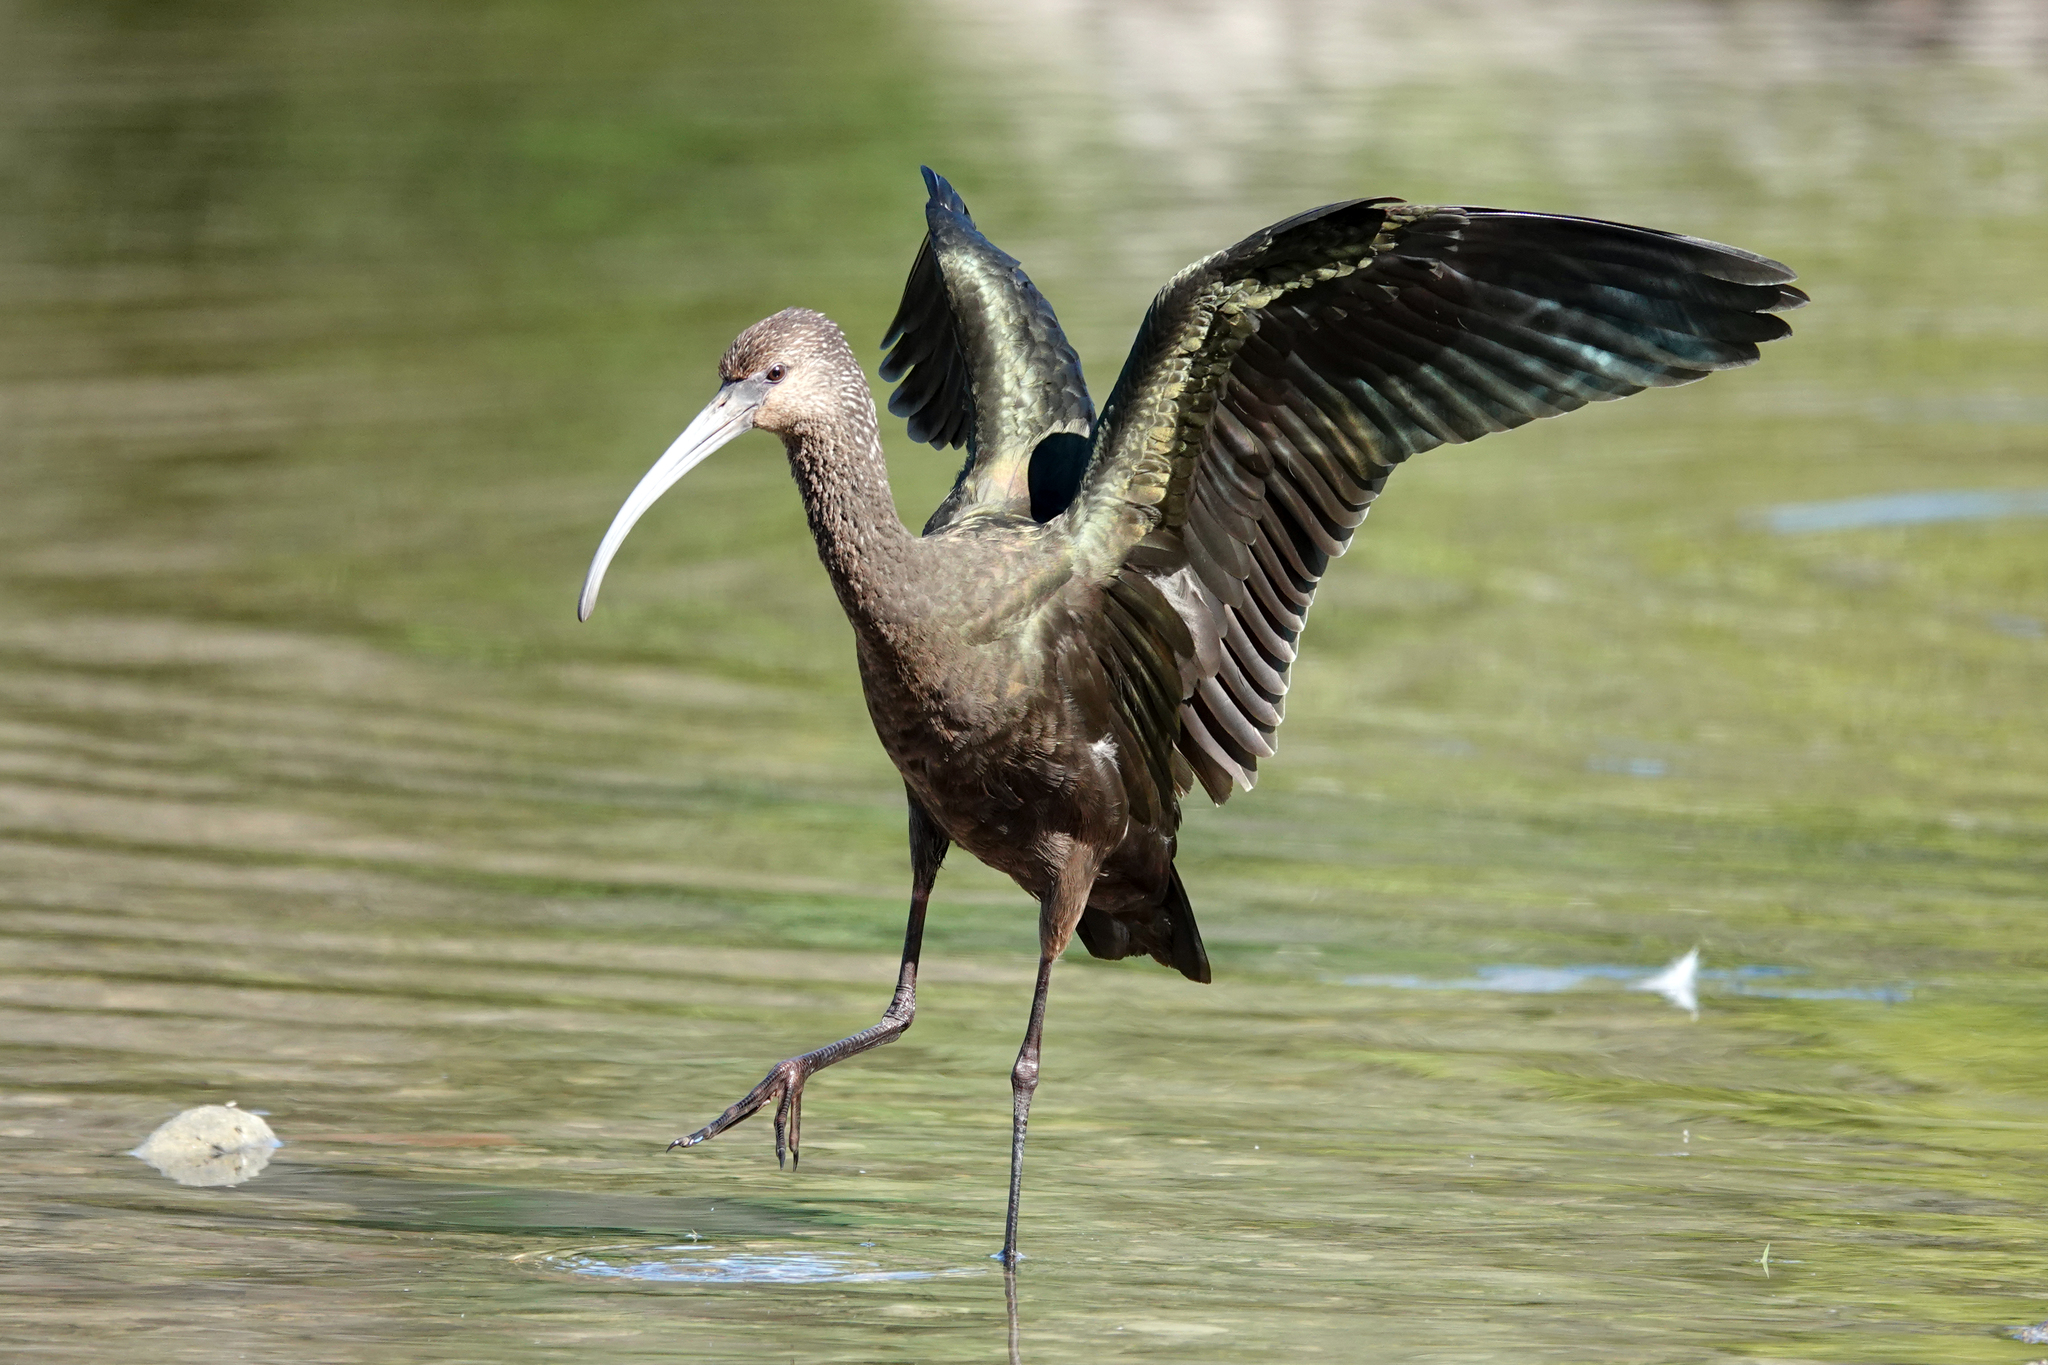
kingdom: Animalia
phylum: Chordata
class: Aves
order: Pelecaniformes
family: Threskiornithidae
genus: Plegadis
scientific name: Plegadis chihi
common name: White-faced ibis
